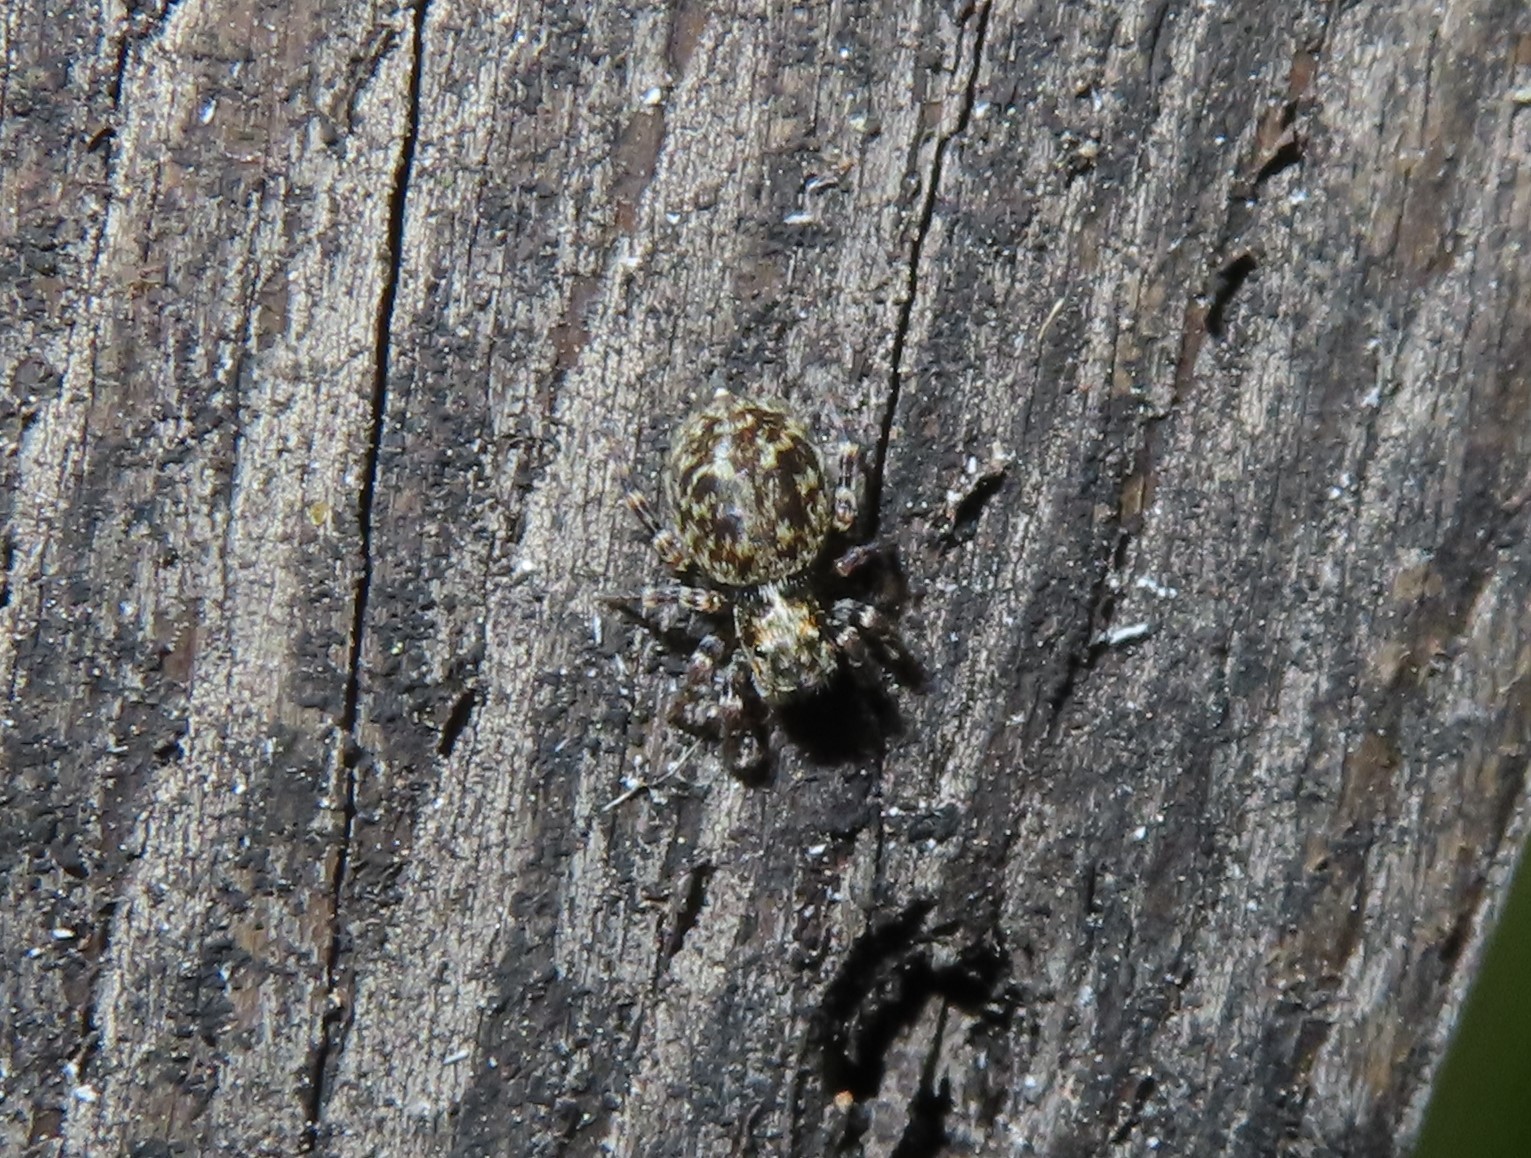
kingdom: Animalia
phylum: Arthropoda
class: Arachnida
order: Araneae
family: Salticidae
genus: Pseudeuophrys
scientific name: Pseudeuophrys erratica
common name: Jumping spider
